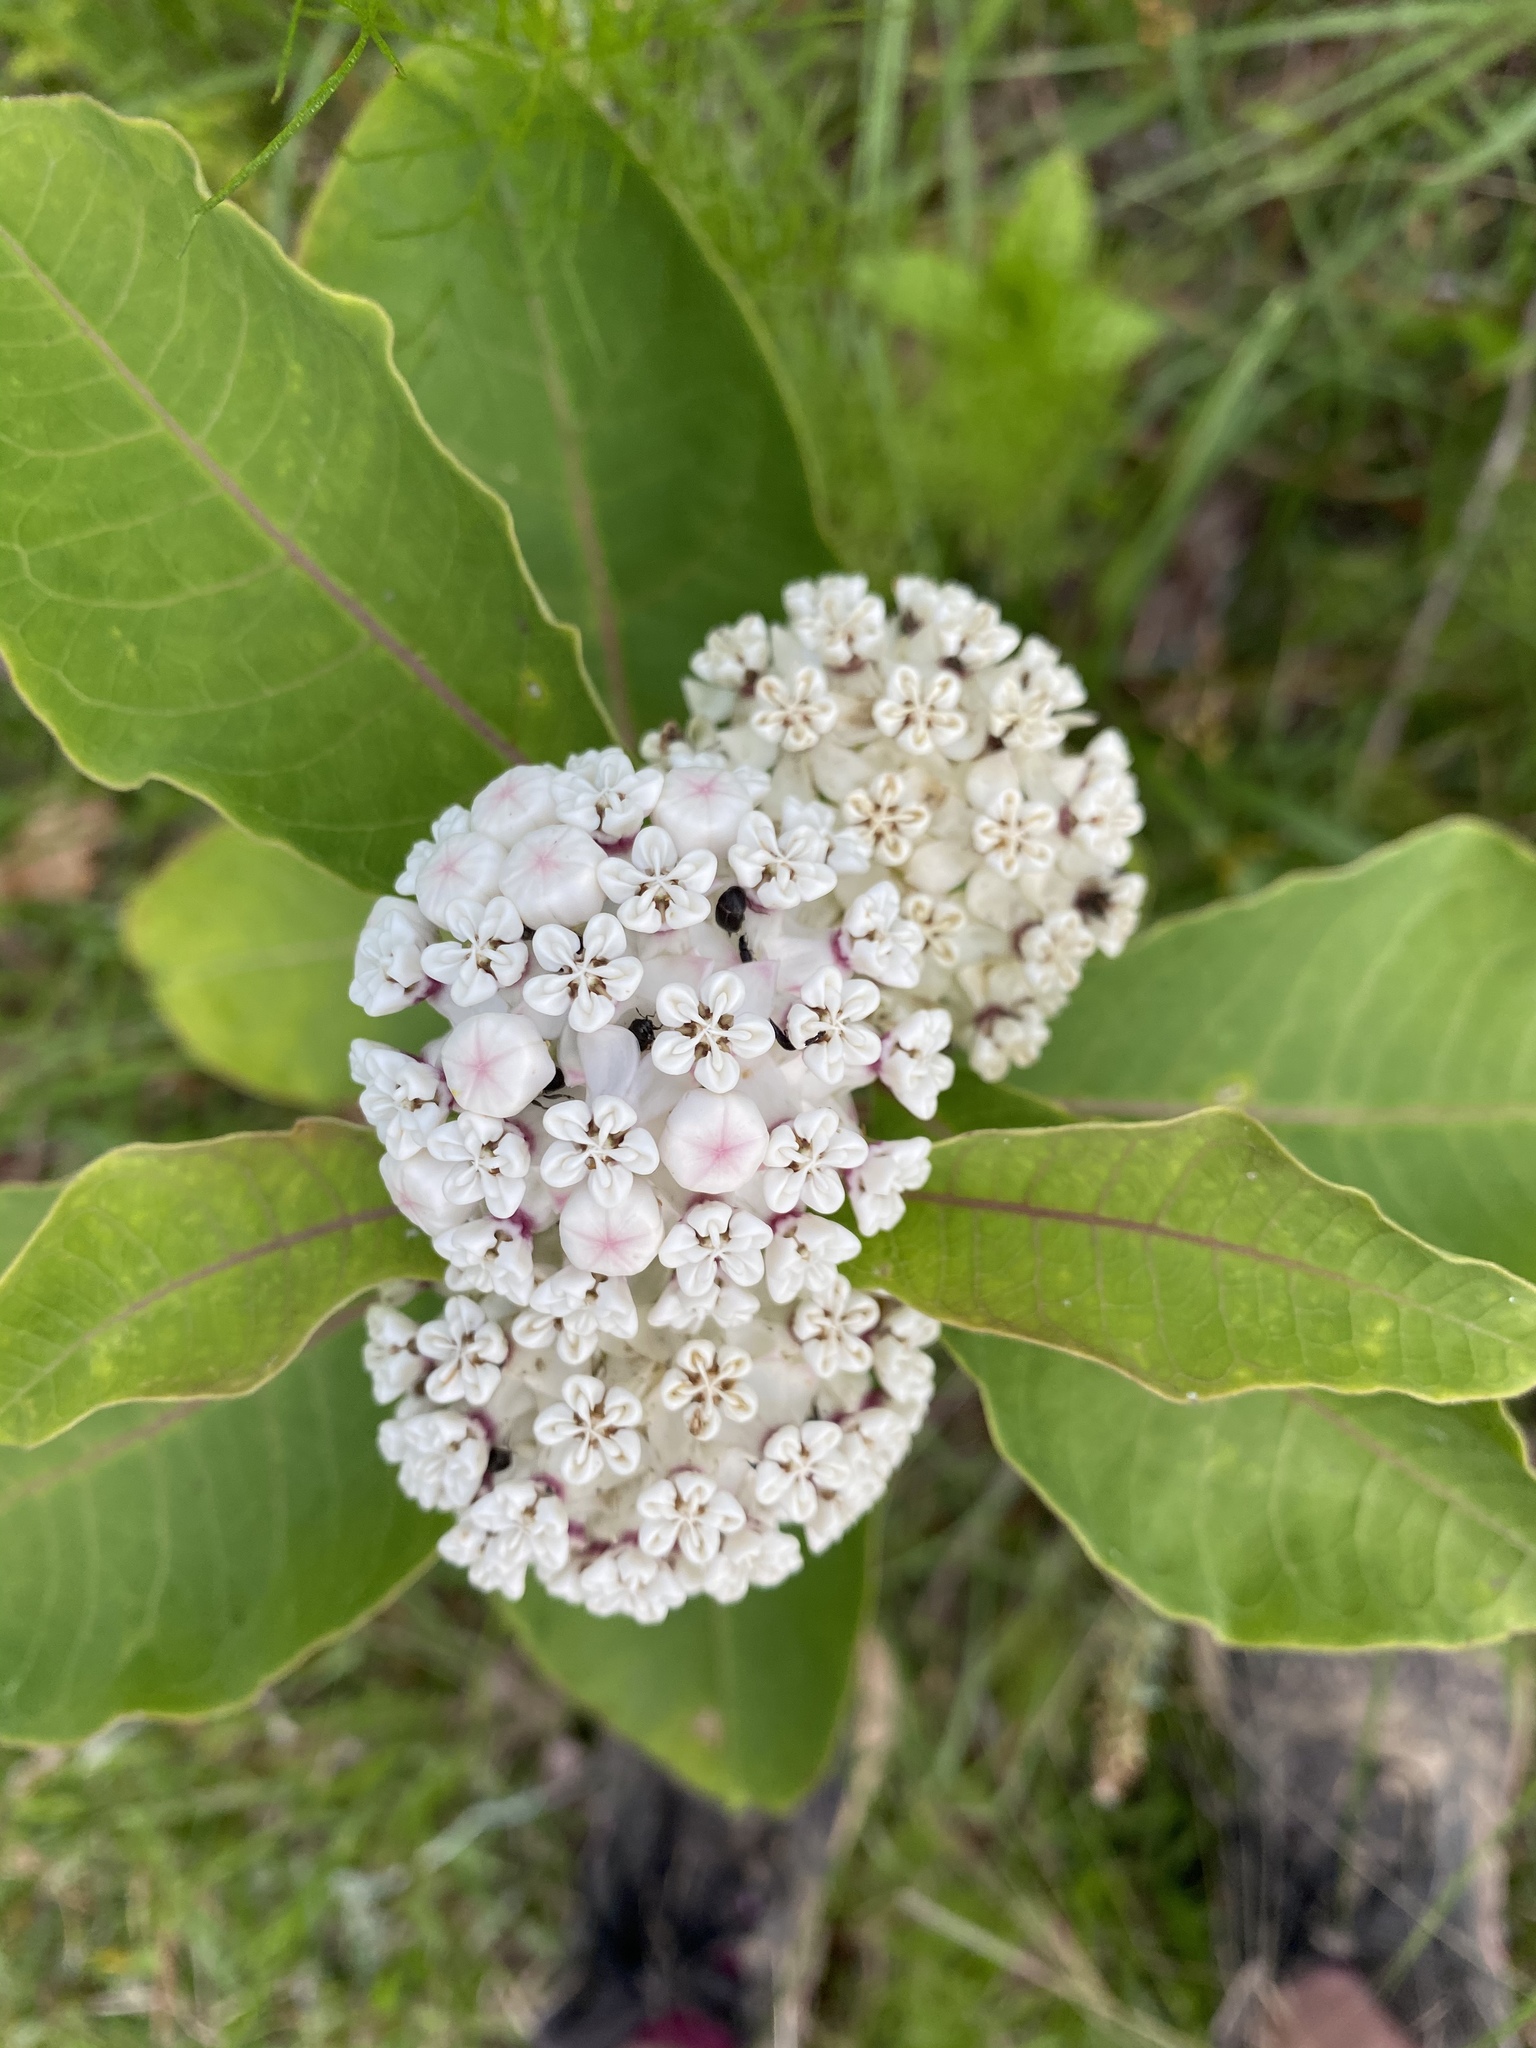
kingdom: Plantae
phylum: Tracheophyta
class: Magnoliopsida
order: Gentianales
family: Apocynaceae
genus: Asclepias
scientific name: Asclepias variegata
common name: Variegated milkweed
